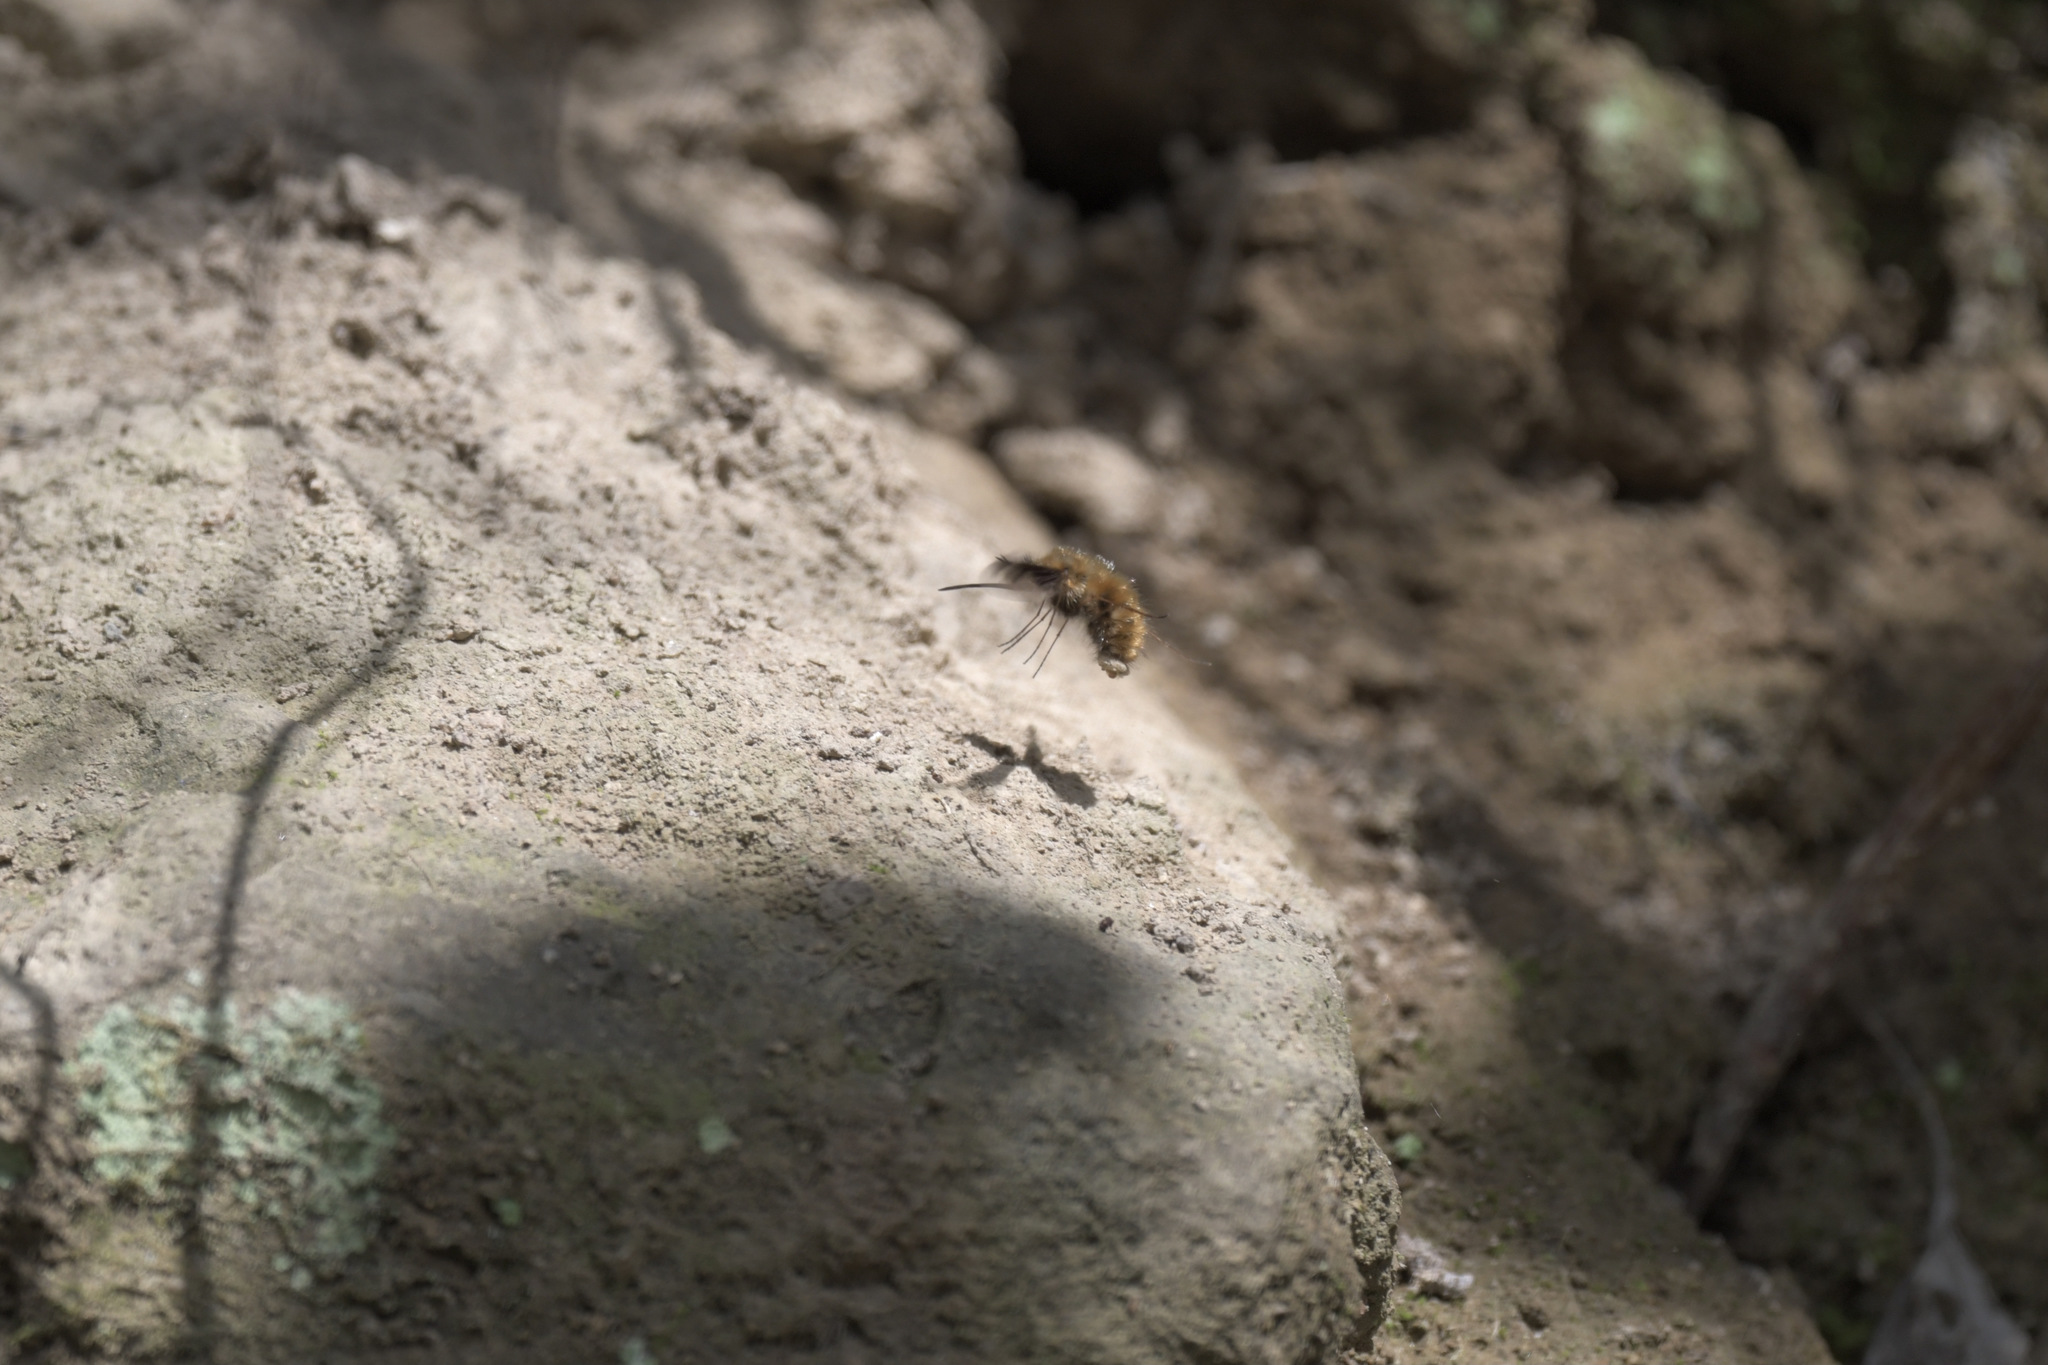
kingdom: Animalia
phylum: Arthropoda
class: Insecta
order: Diptera
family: Bombyliidae
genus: Bombylius
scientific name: Bombylius major
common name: Bee fly
